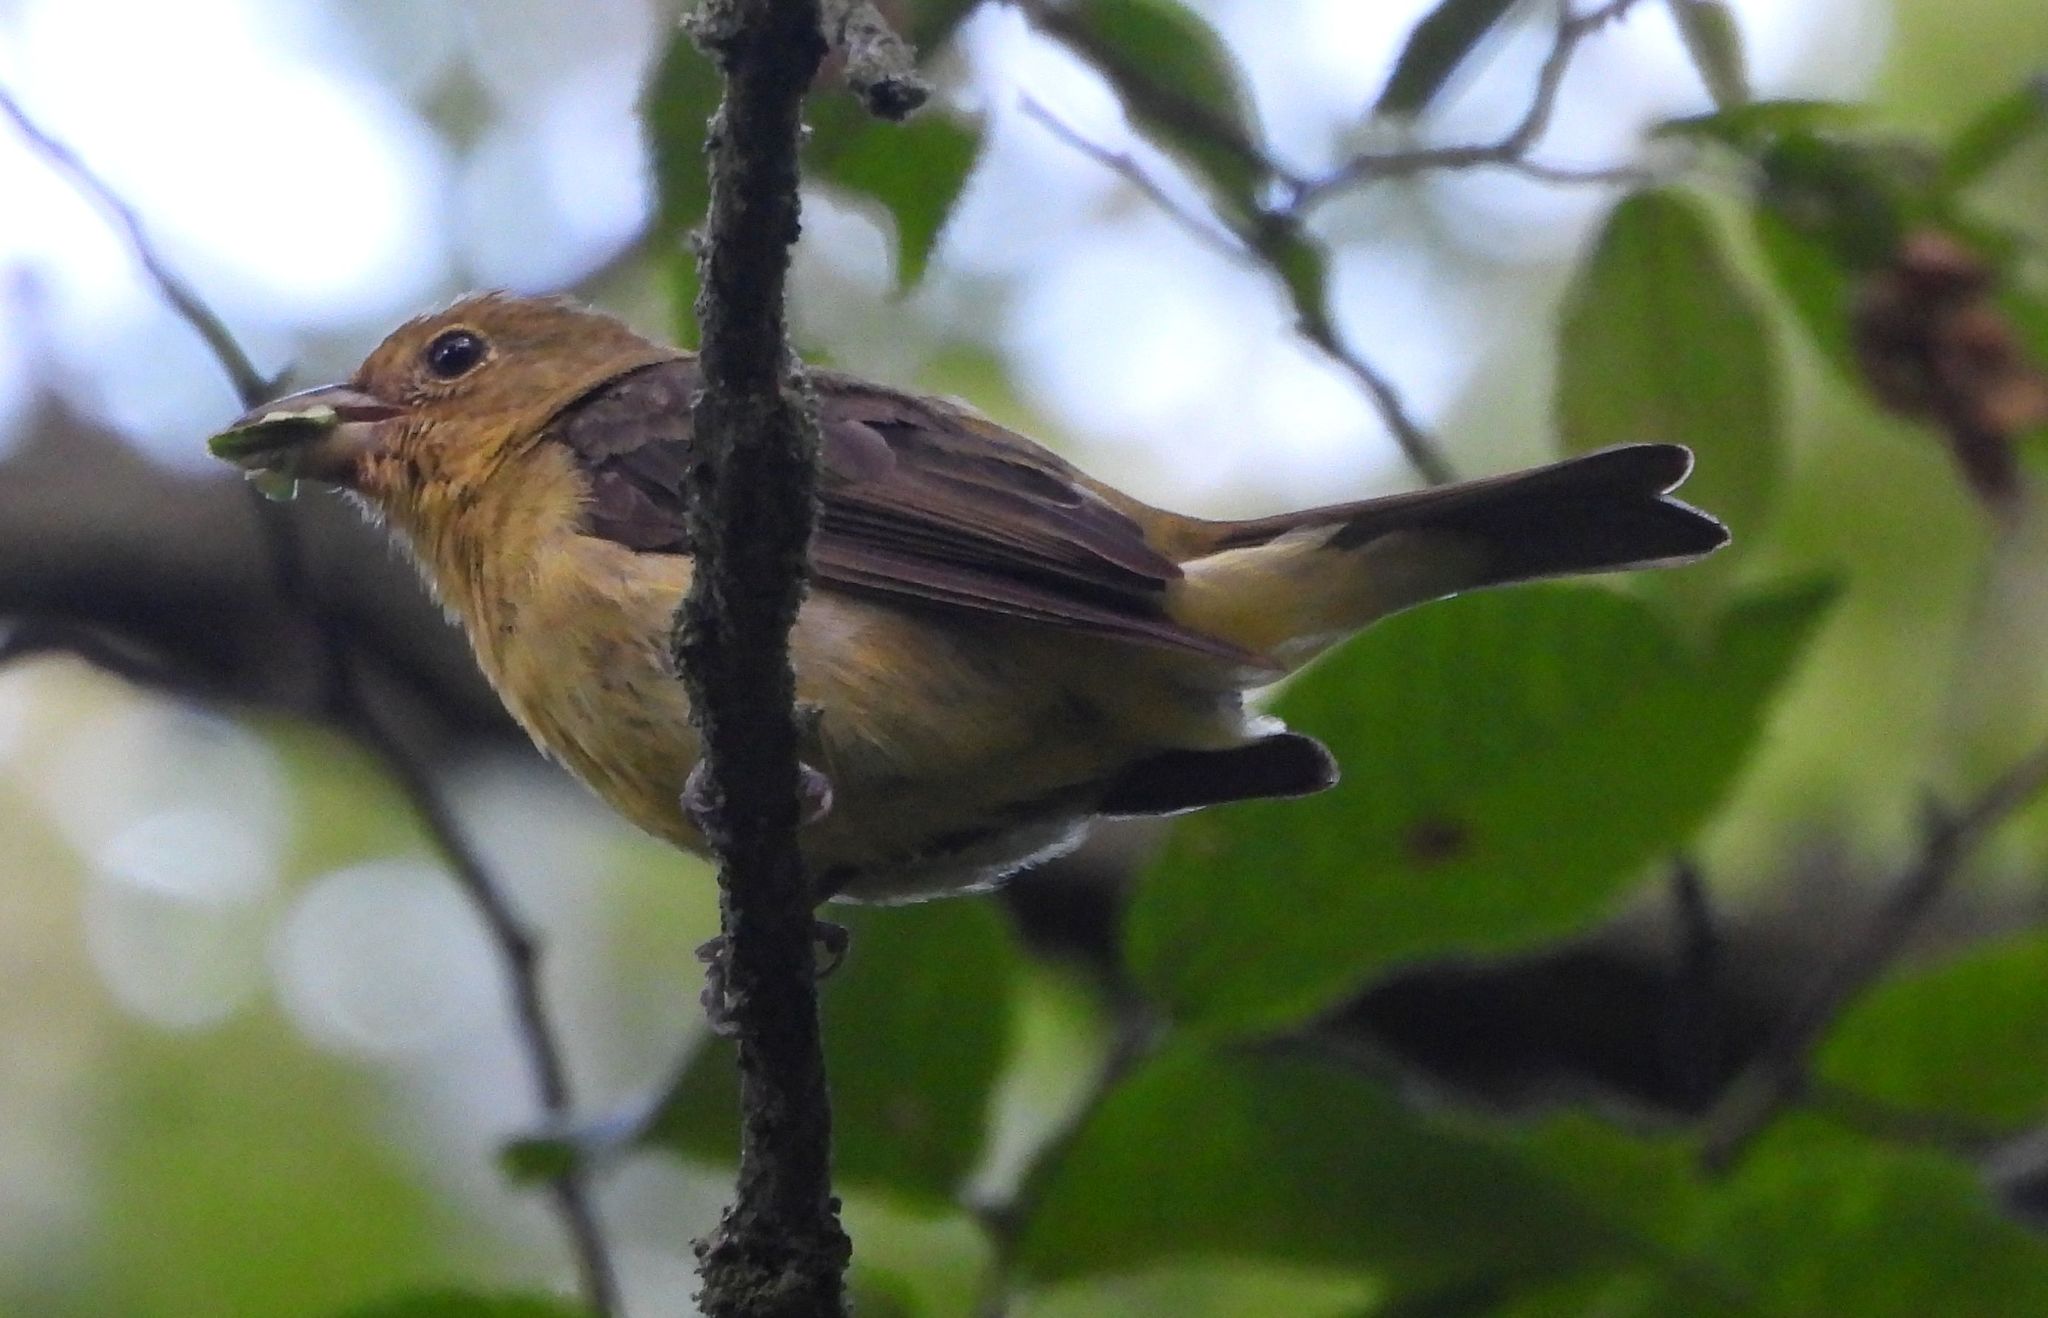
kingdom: Animalia
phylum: Chordata
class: Aves
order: Passeriformes
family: Cardinalidae
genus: Piranga
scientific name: Piranga olivacea
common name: Scarlet tanager
